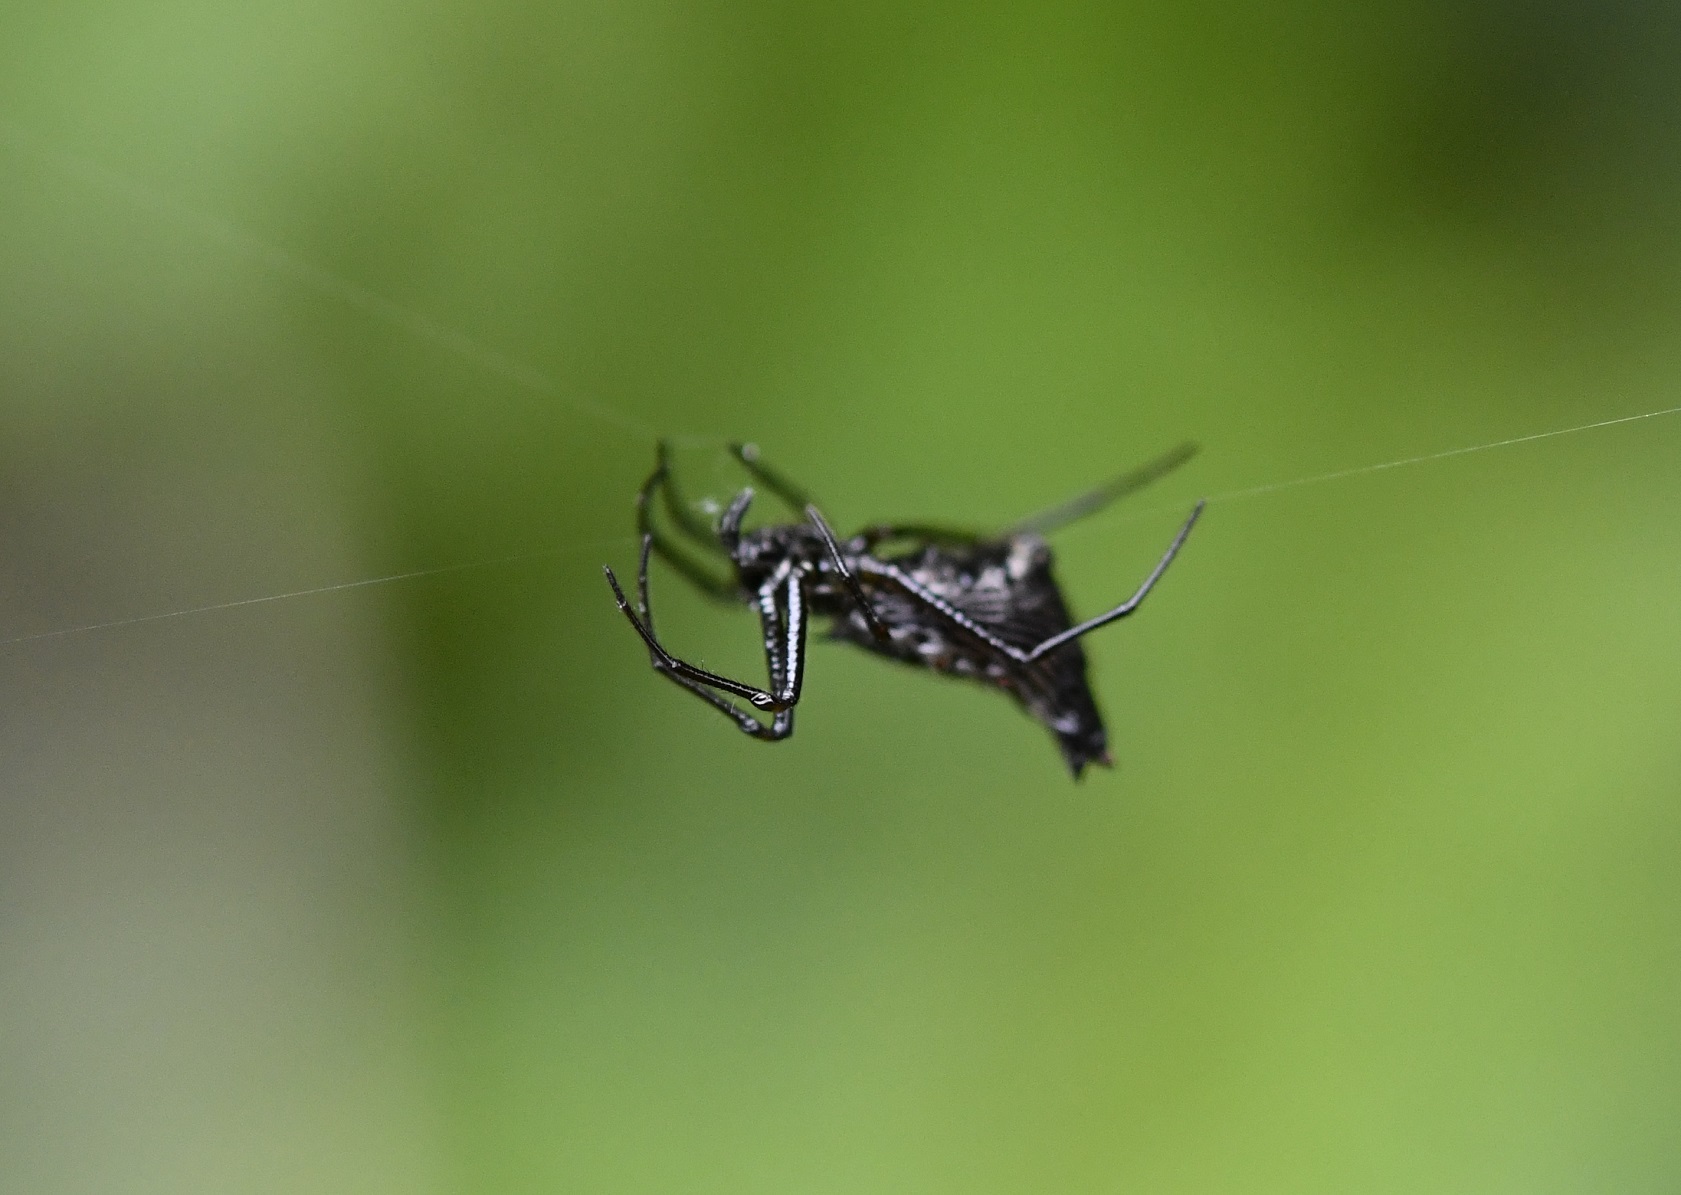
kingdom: Animalia
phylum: Arthropoda
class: Arachnida
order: Araneae
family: Araneidae
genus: Micrathena
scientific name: Micrathena duodecimspinosa
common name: Orb weavers
